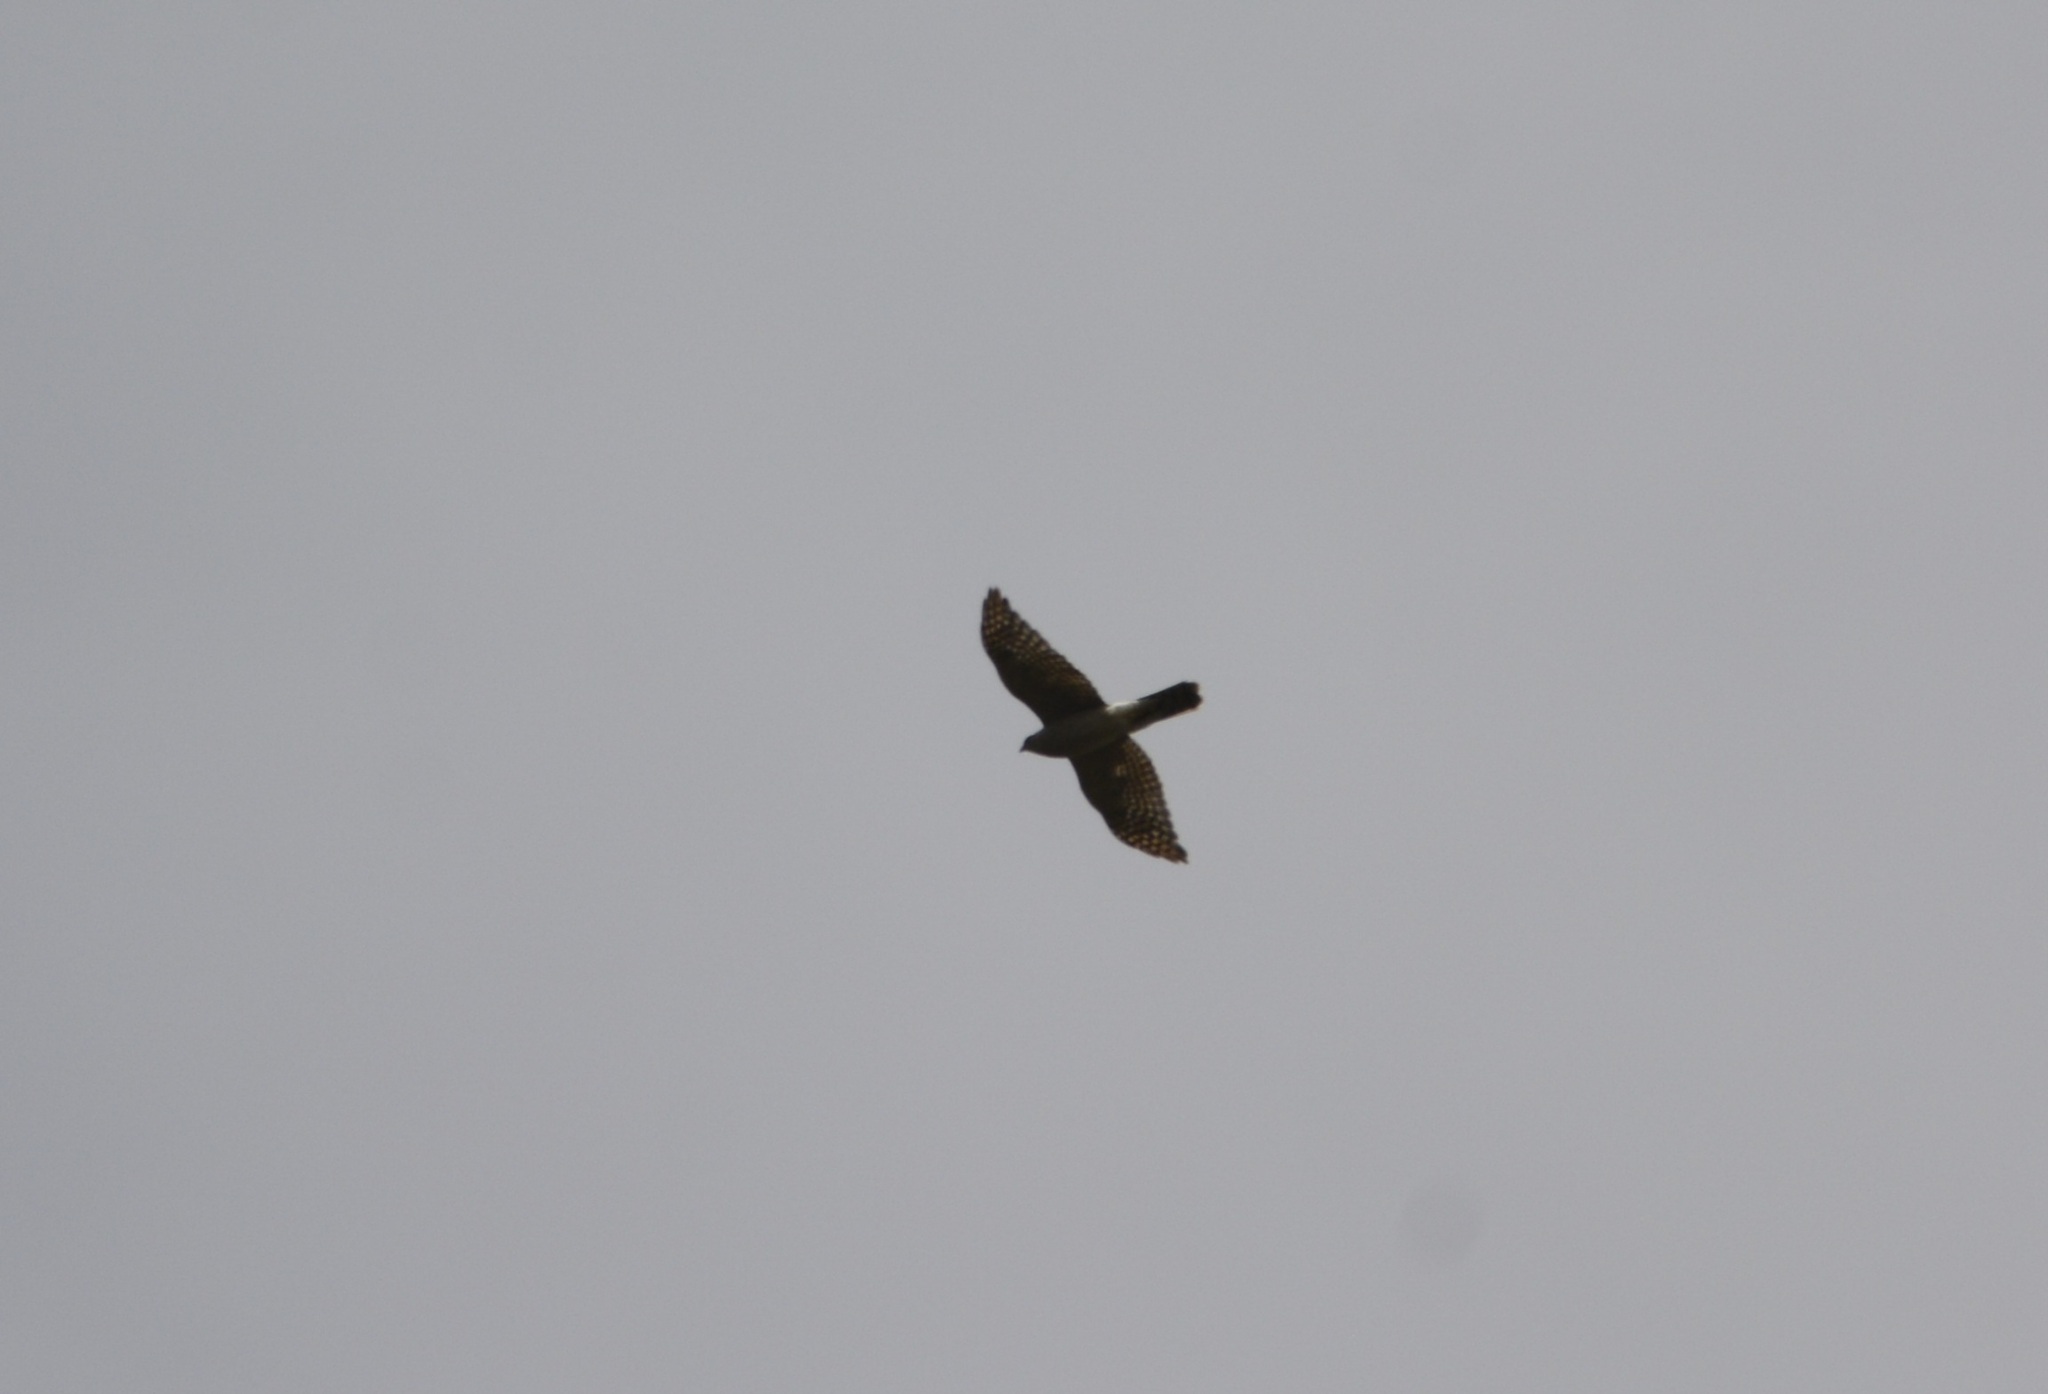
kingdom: Animalia
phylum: Chordata
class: Aves
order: Accipitriformes
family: Accipitridae
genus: Accipiter
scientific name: Accipiter nisus
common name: Eurasian sparrowhawk
